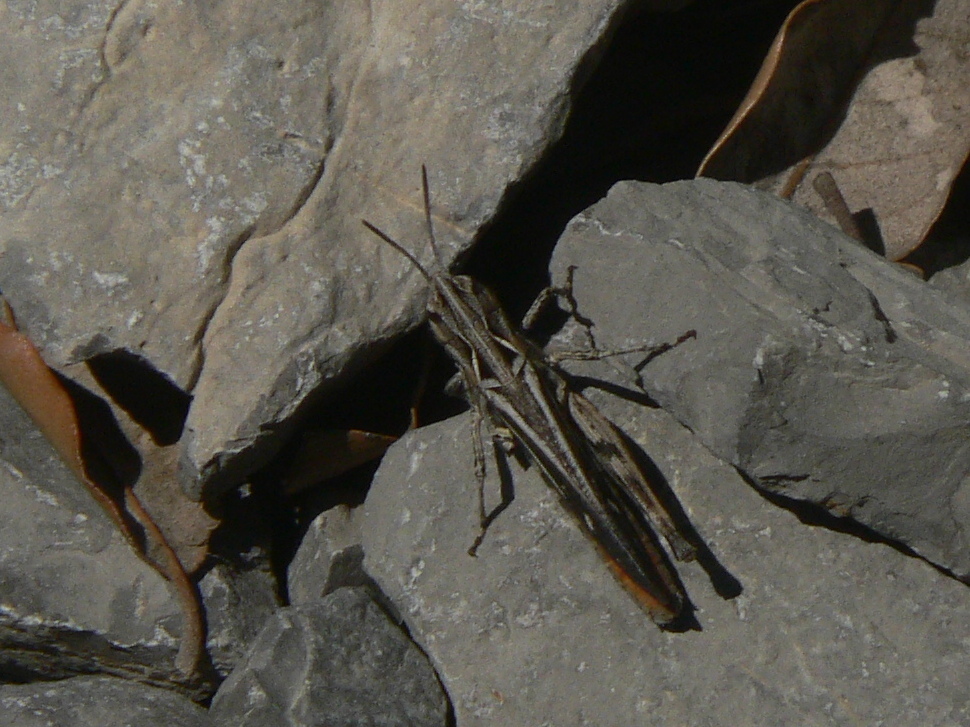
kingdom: Animalia
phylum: Arthropoda
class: Insecta
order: Orthoptera
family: Acrididae
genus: Omocestus
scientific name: Omocestus raymondi
